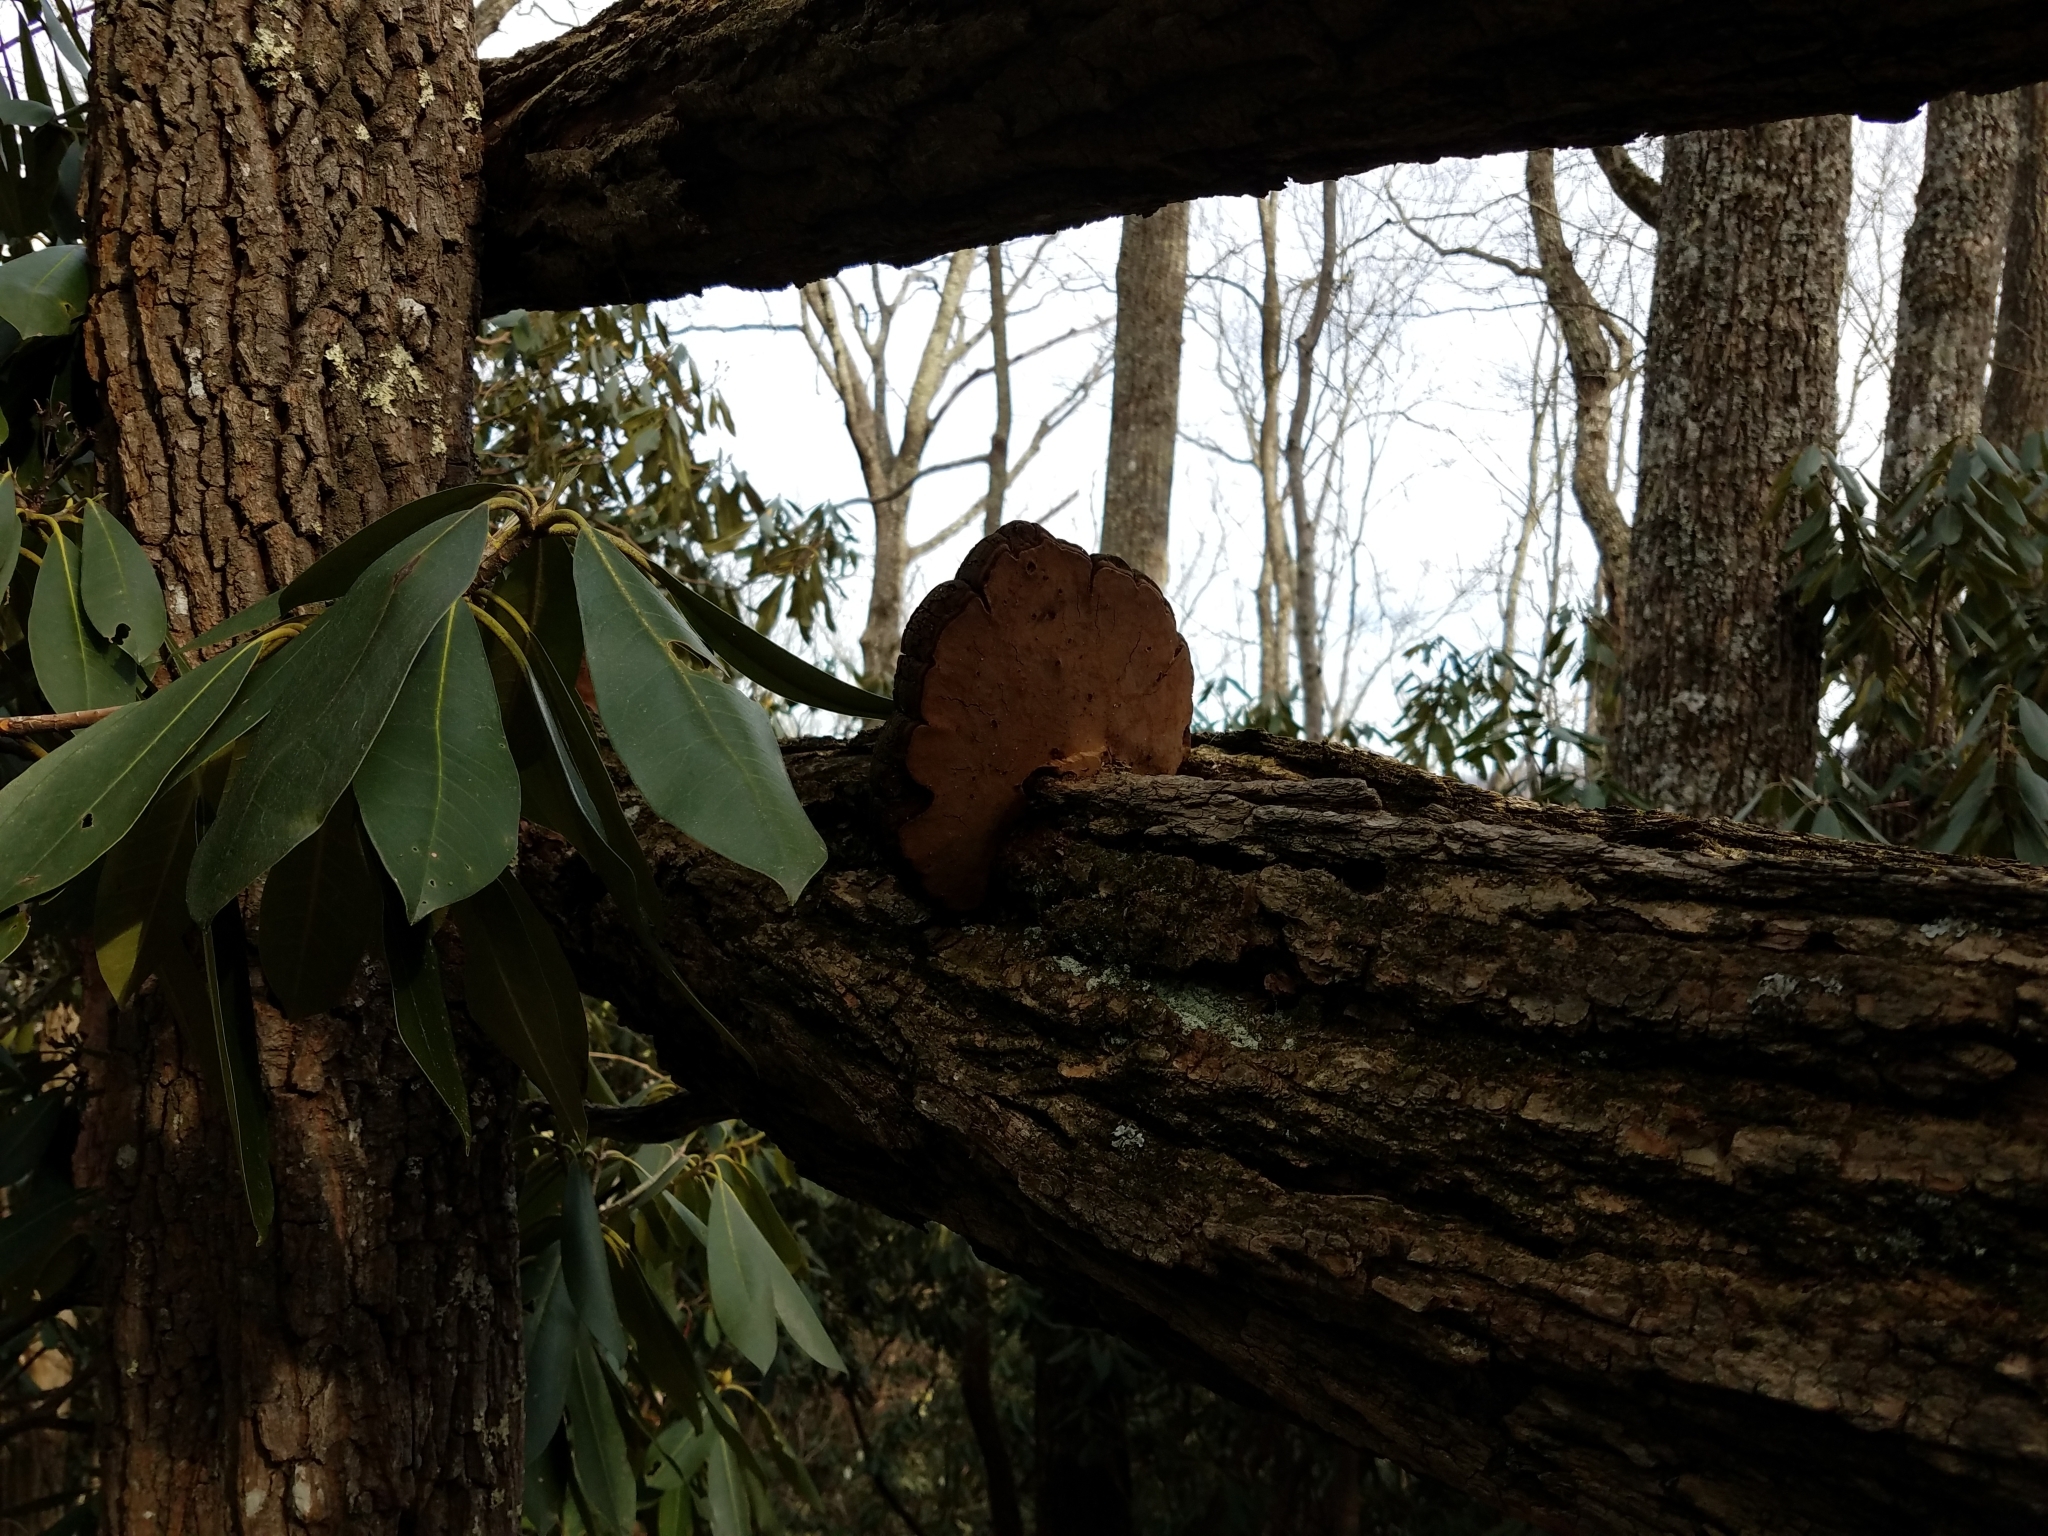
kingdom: Fungi
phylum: Basidiomycota
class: Agaricomycetes
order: Hymenochaetales
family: Hymenochaetaceae
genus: Phellinus
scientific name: Phellinus robiniae
